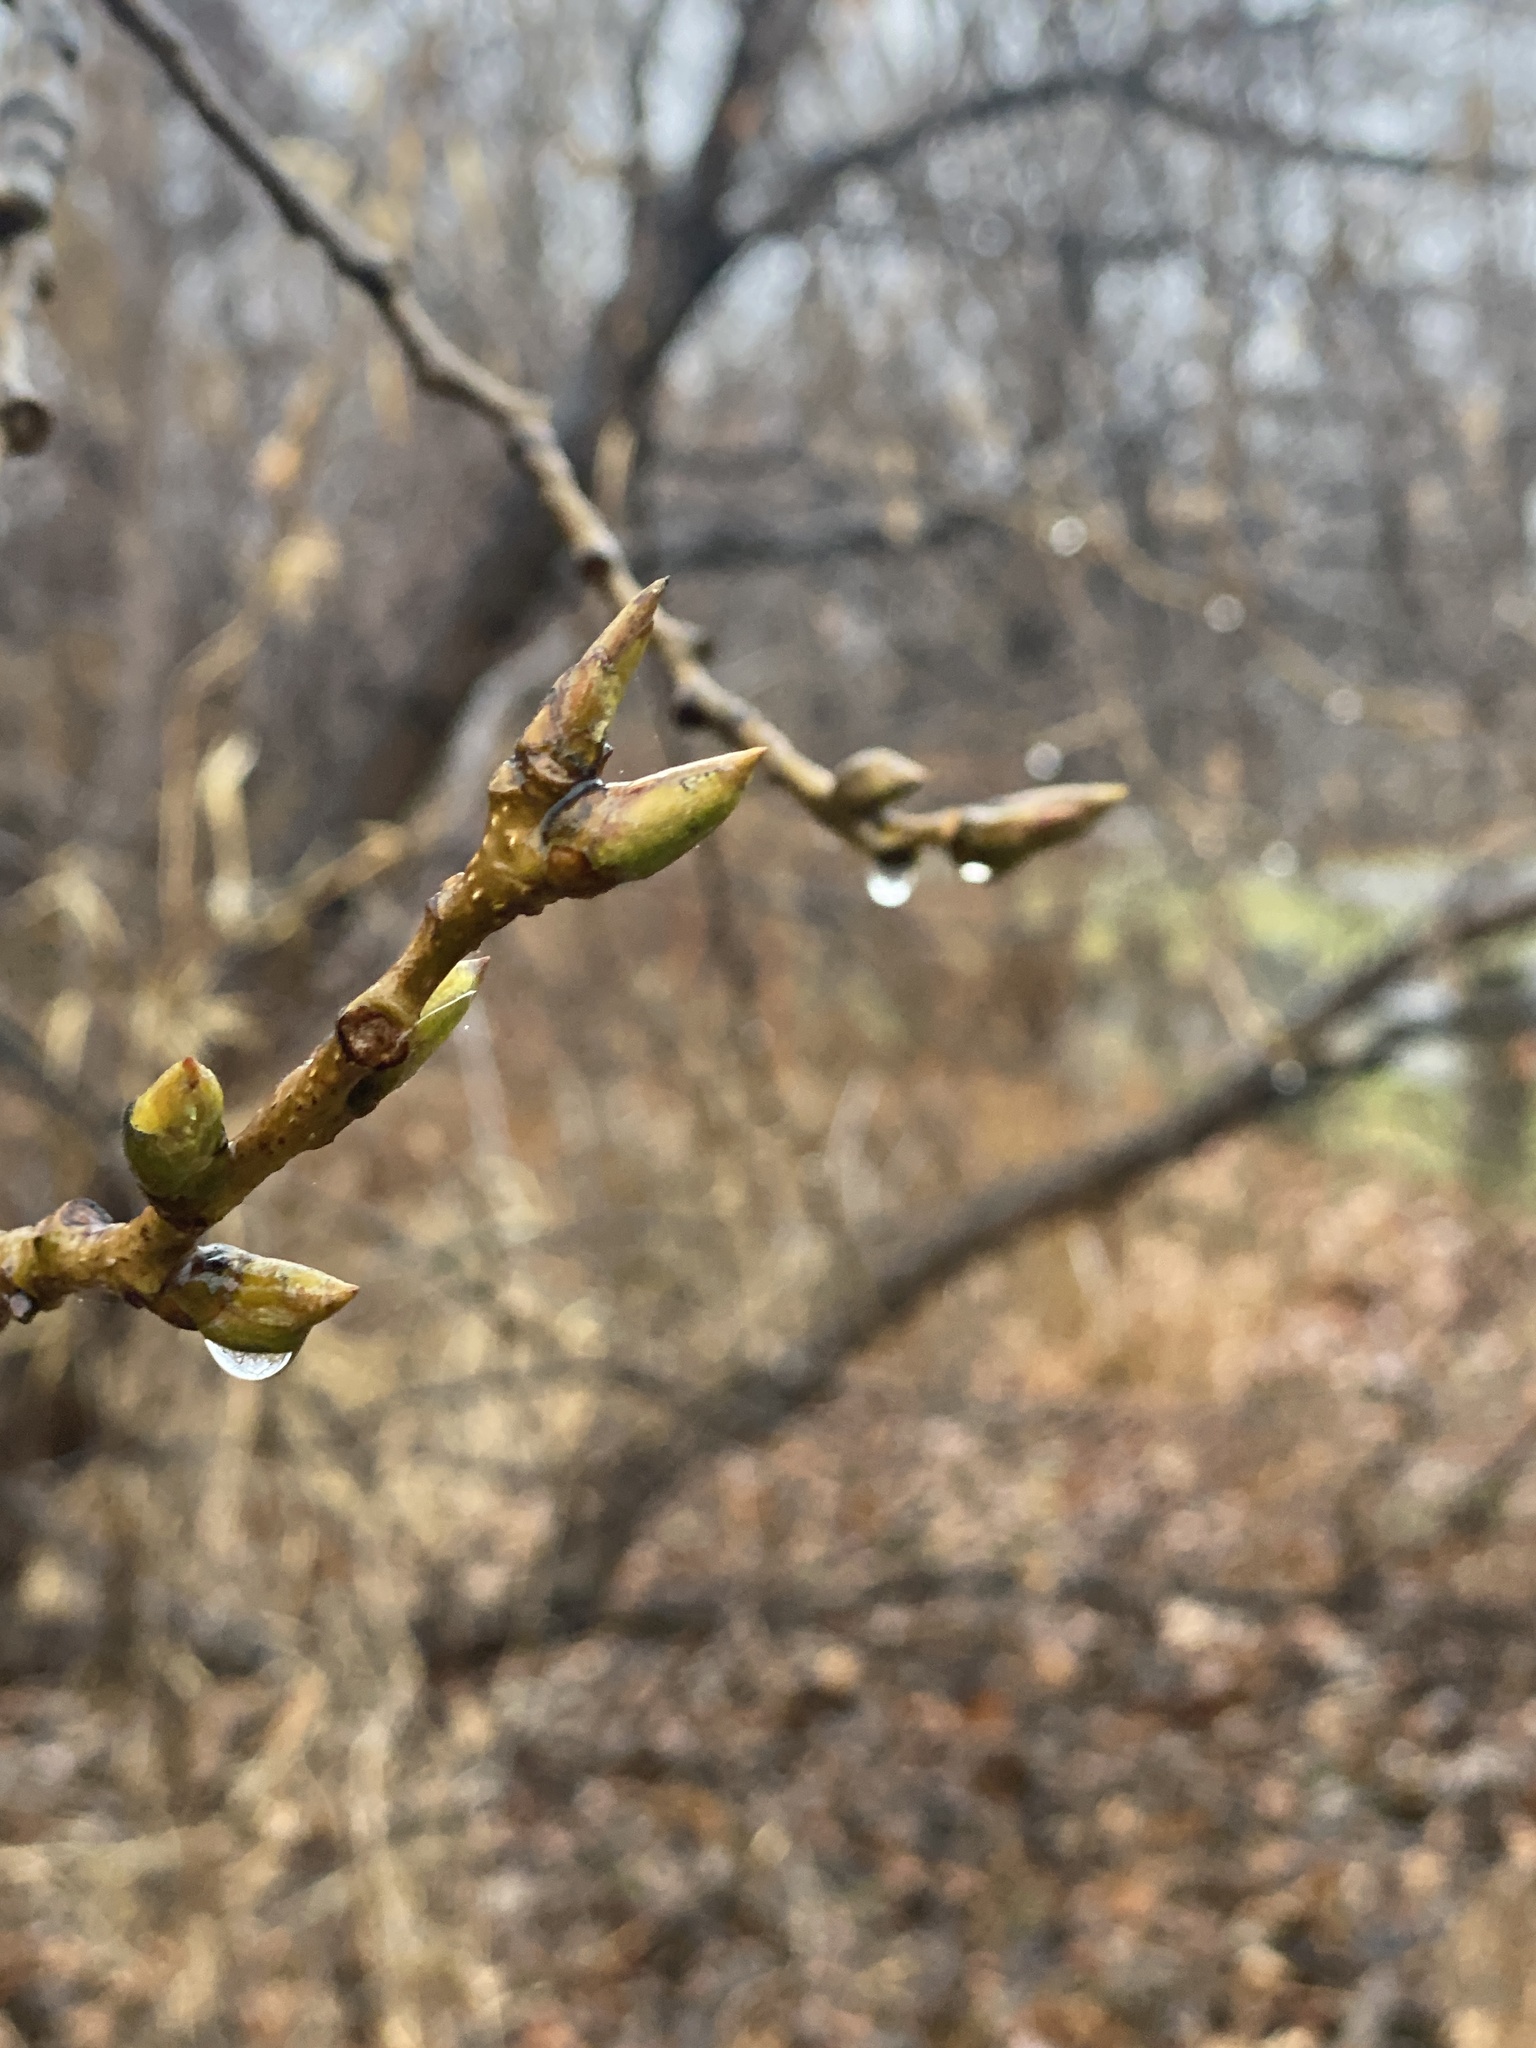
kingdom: Plantae
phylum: Tracheophyta
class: Magnoliopsida
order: Malpighiales
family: Salicaceae
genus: Populus
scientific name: Populus deltoides
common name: Eastern cottonwood
